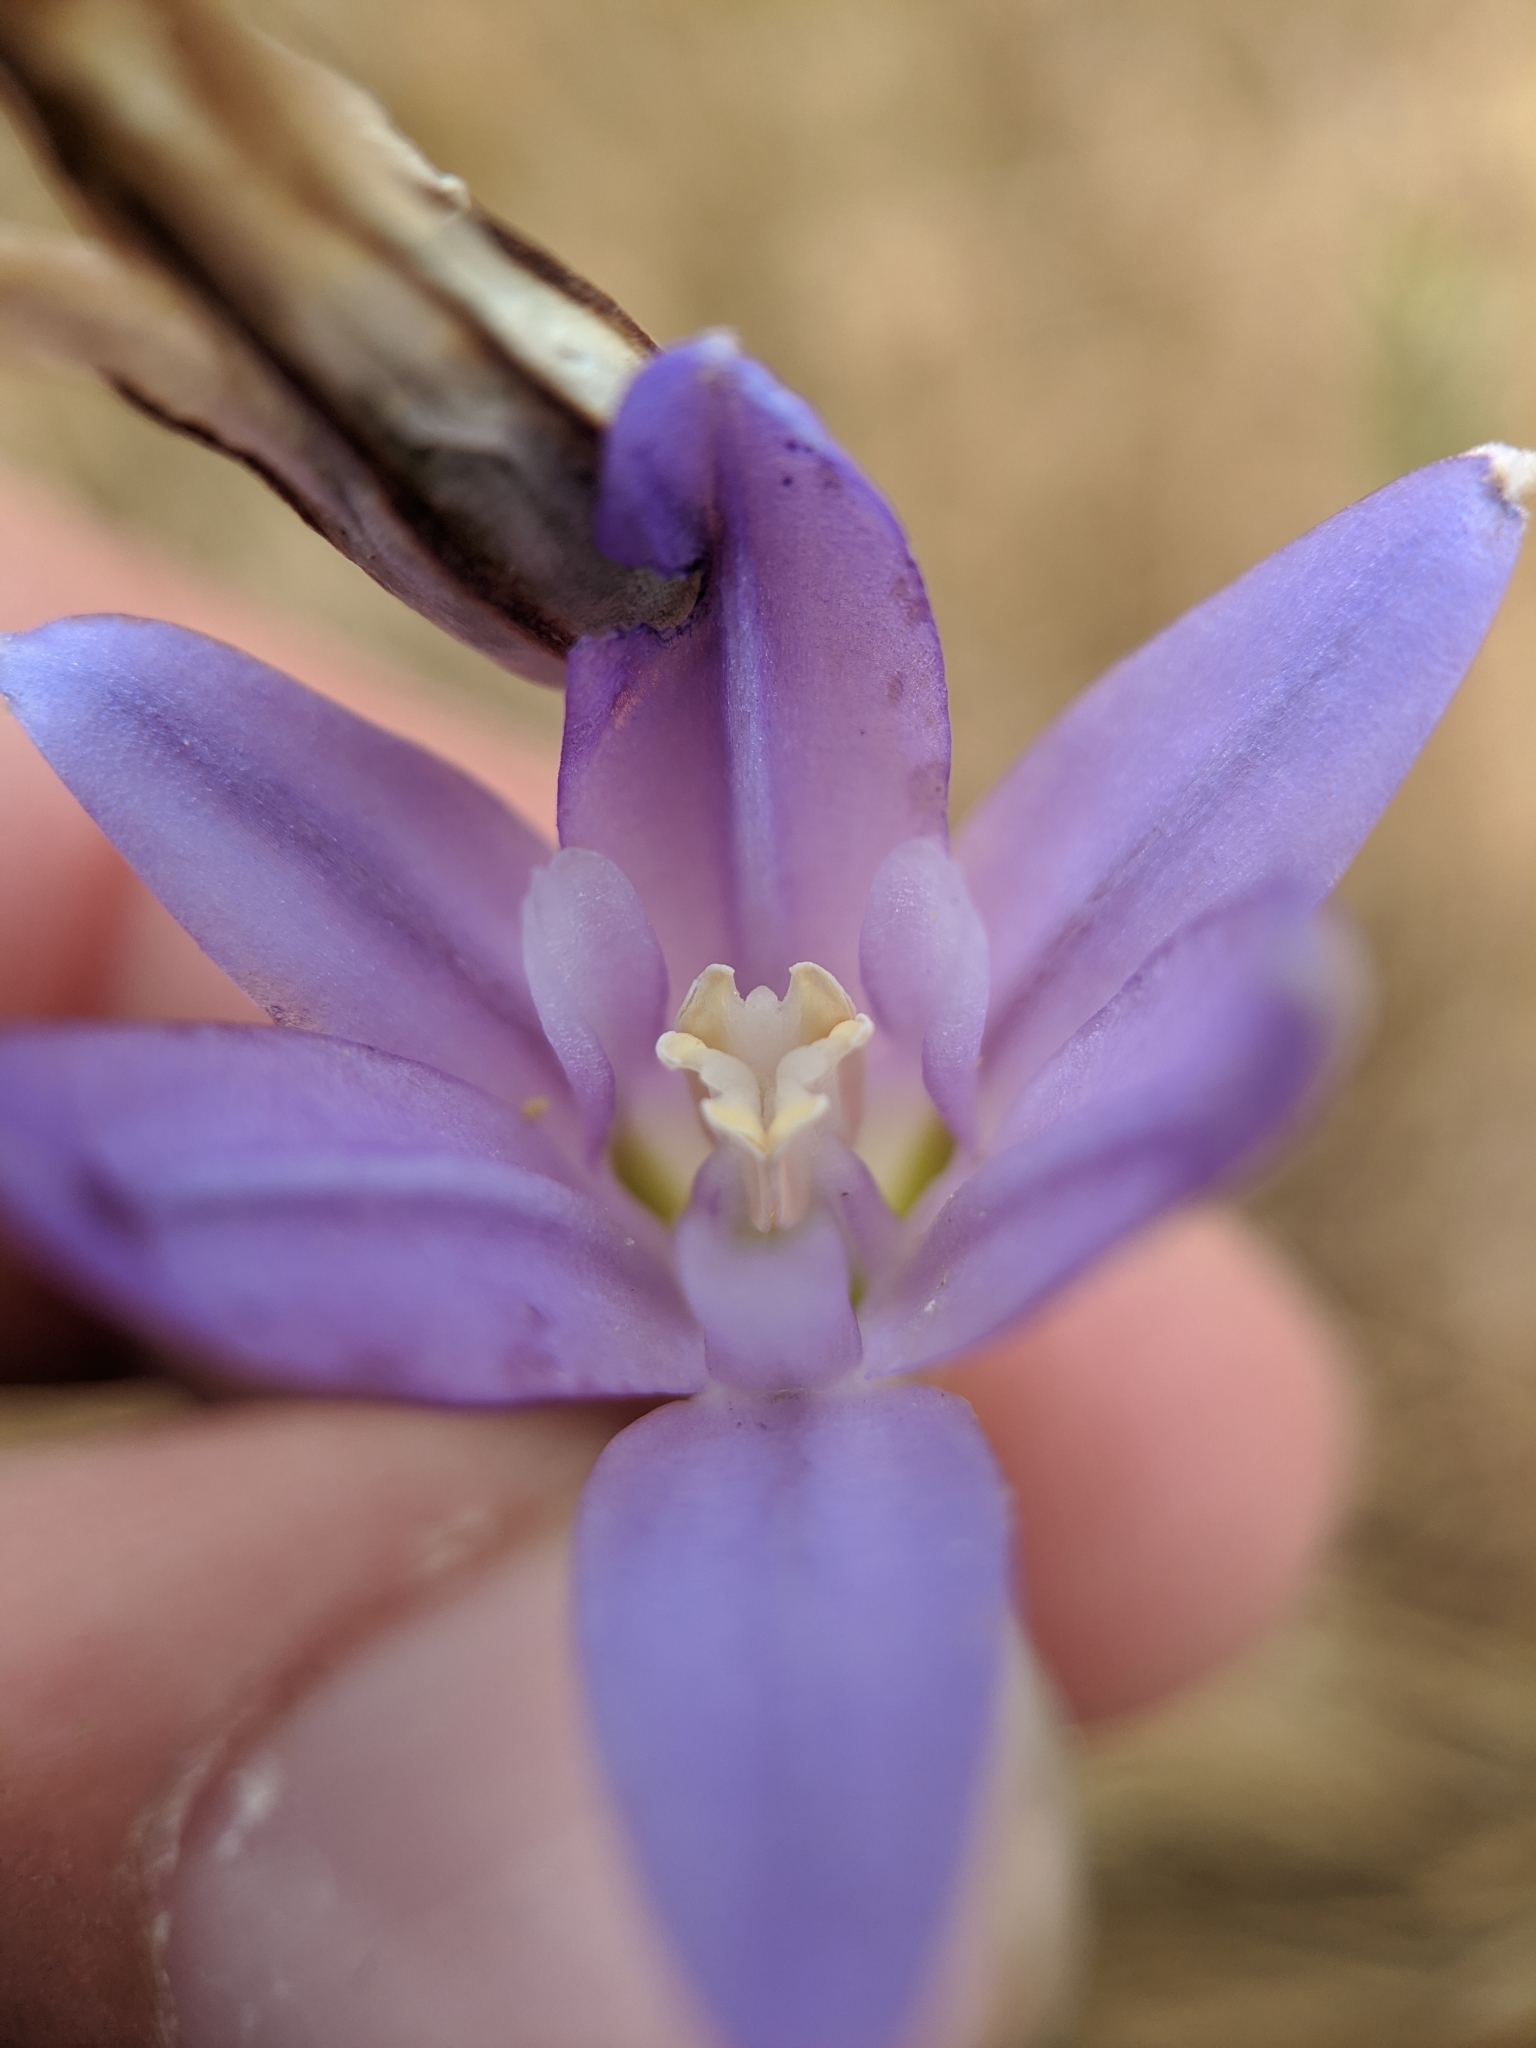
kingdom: Plantae
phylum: Tracheophyta
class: Liliopsida
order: Asparagales
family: Asparagaceae
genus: Brodiaea
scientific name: Brodiaea terrestris
